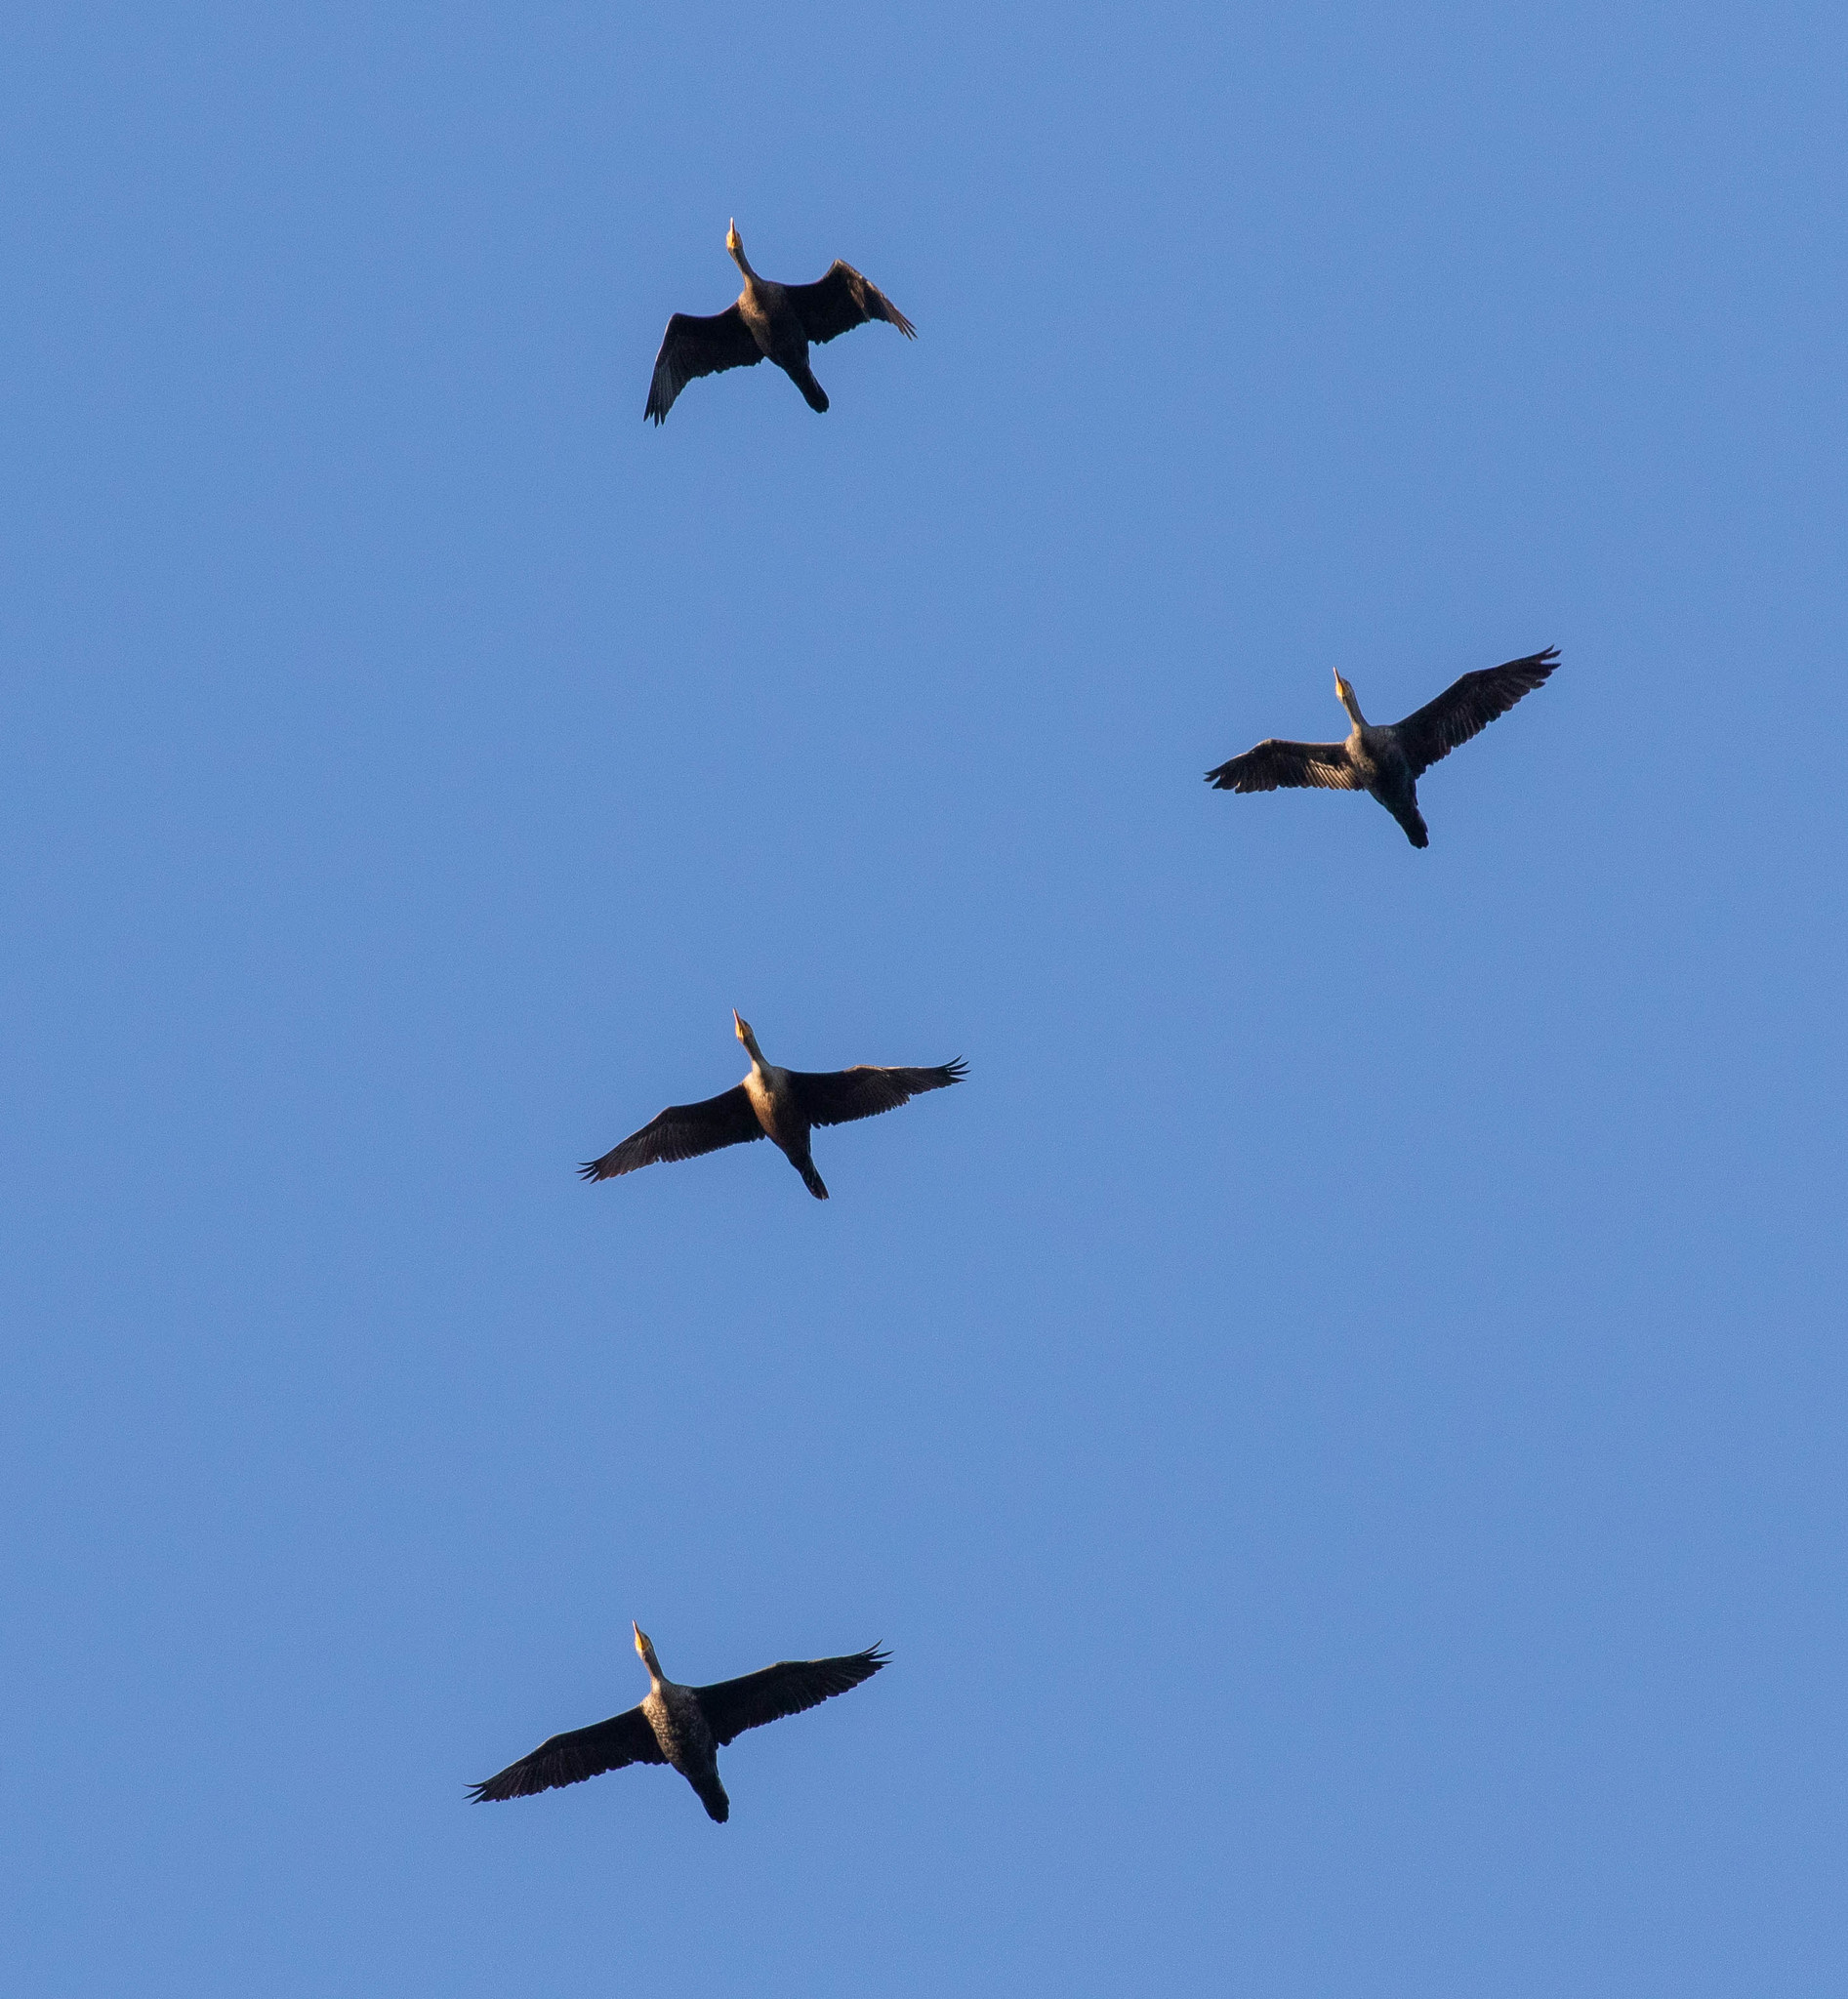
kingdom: Animalia
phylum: Chordata
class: Aves
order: Suliformes
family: Phalacrocoracidae
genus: Phalacrocorax
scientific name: Phalacrocorax auritus
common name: Double-crested cormorant
